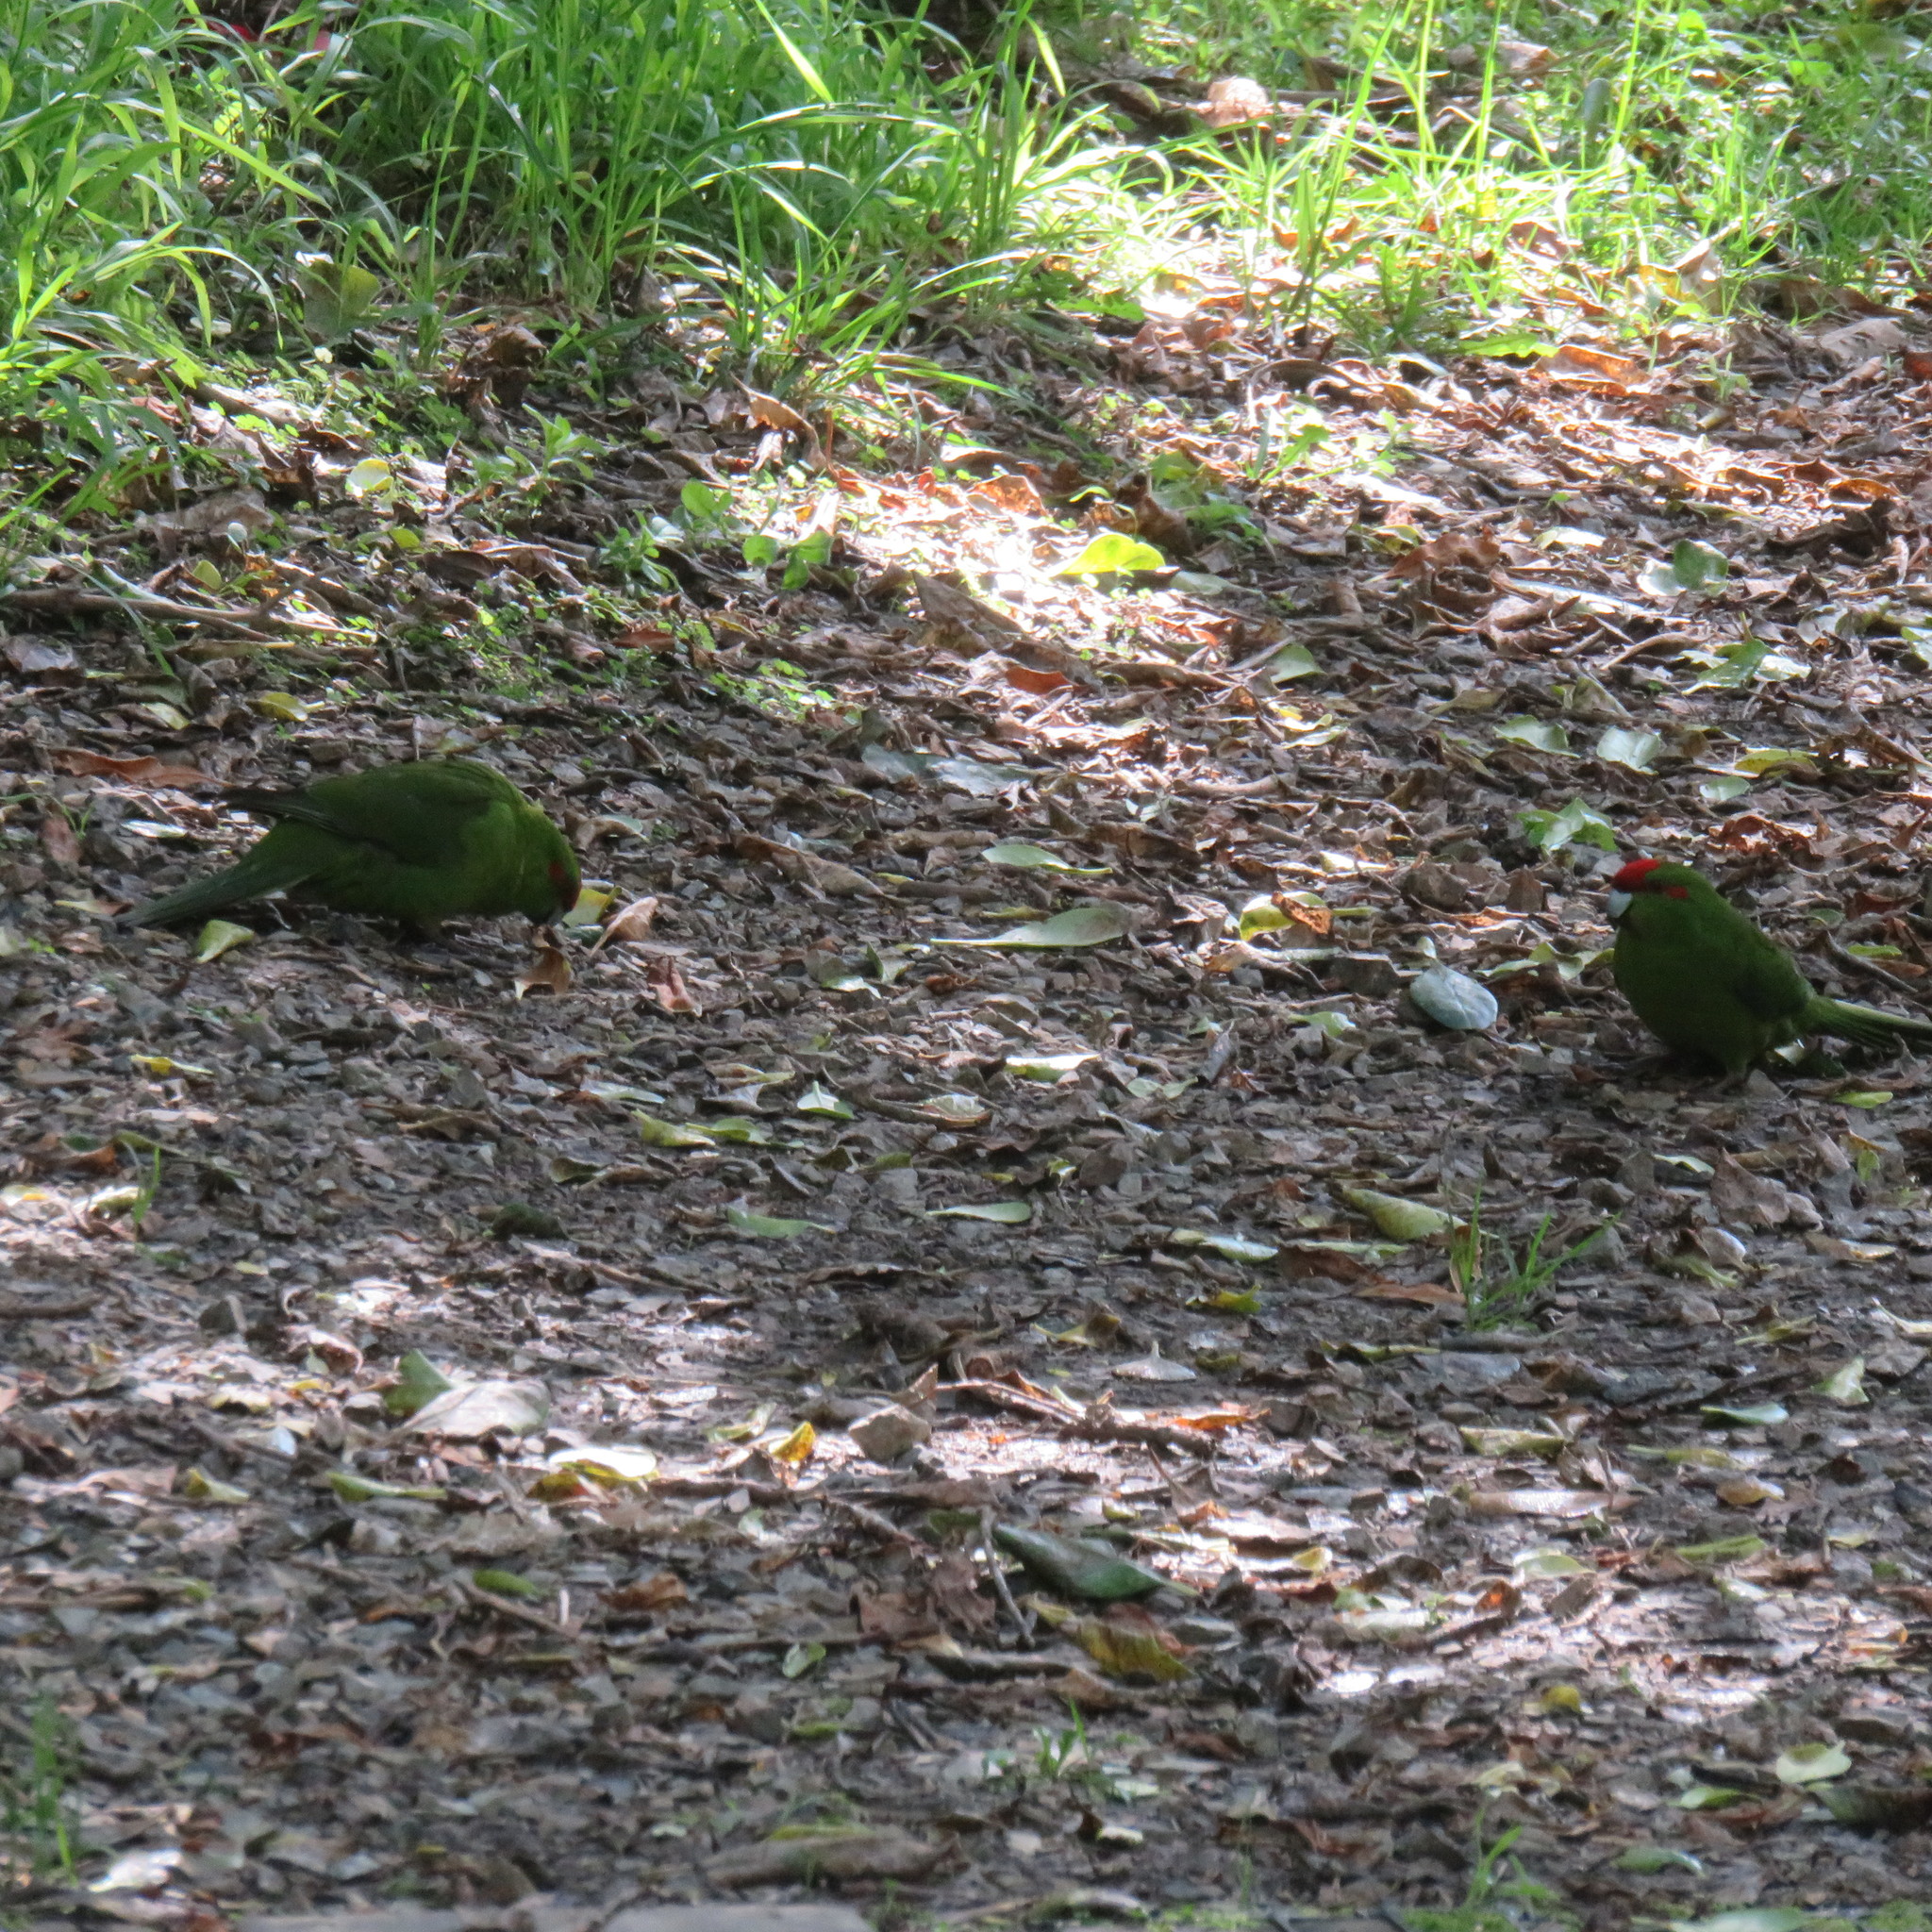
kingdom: Animalia
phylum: Chordata
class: Aves
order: Psittaciformes
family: Psittacidae
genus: Cyanoramphus
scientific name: Cyanoramphus novaezelandiae
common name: Red-fronted parakeet
